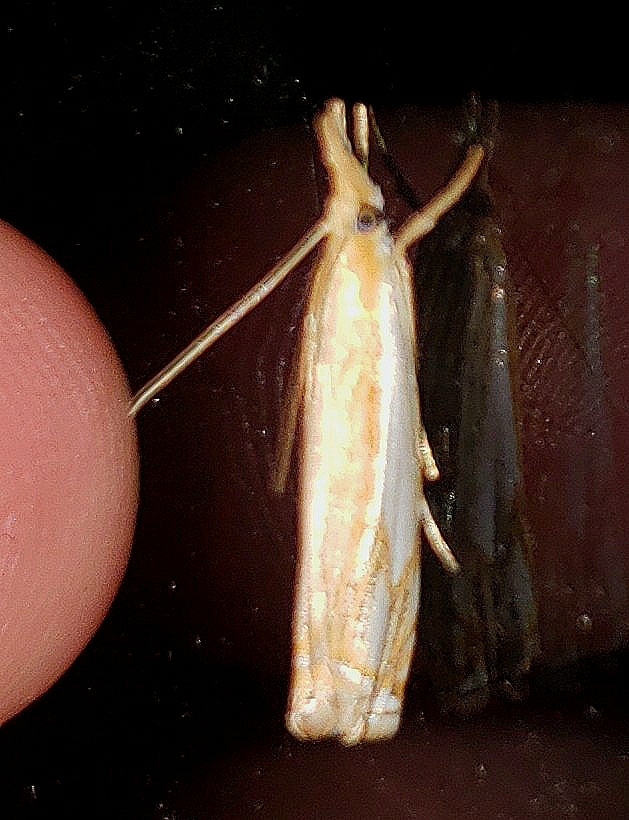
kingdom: Animalia
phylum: Arthropoda
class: Insecta
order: Lepidoptera
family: Crambidae
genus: Crambus
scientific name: Crambus agitatellus
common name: Double-banded grass-veneer
